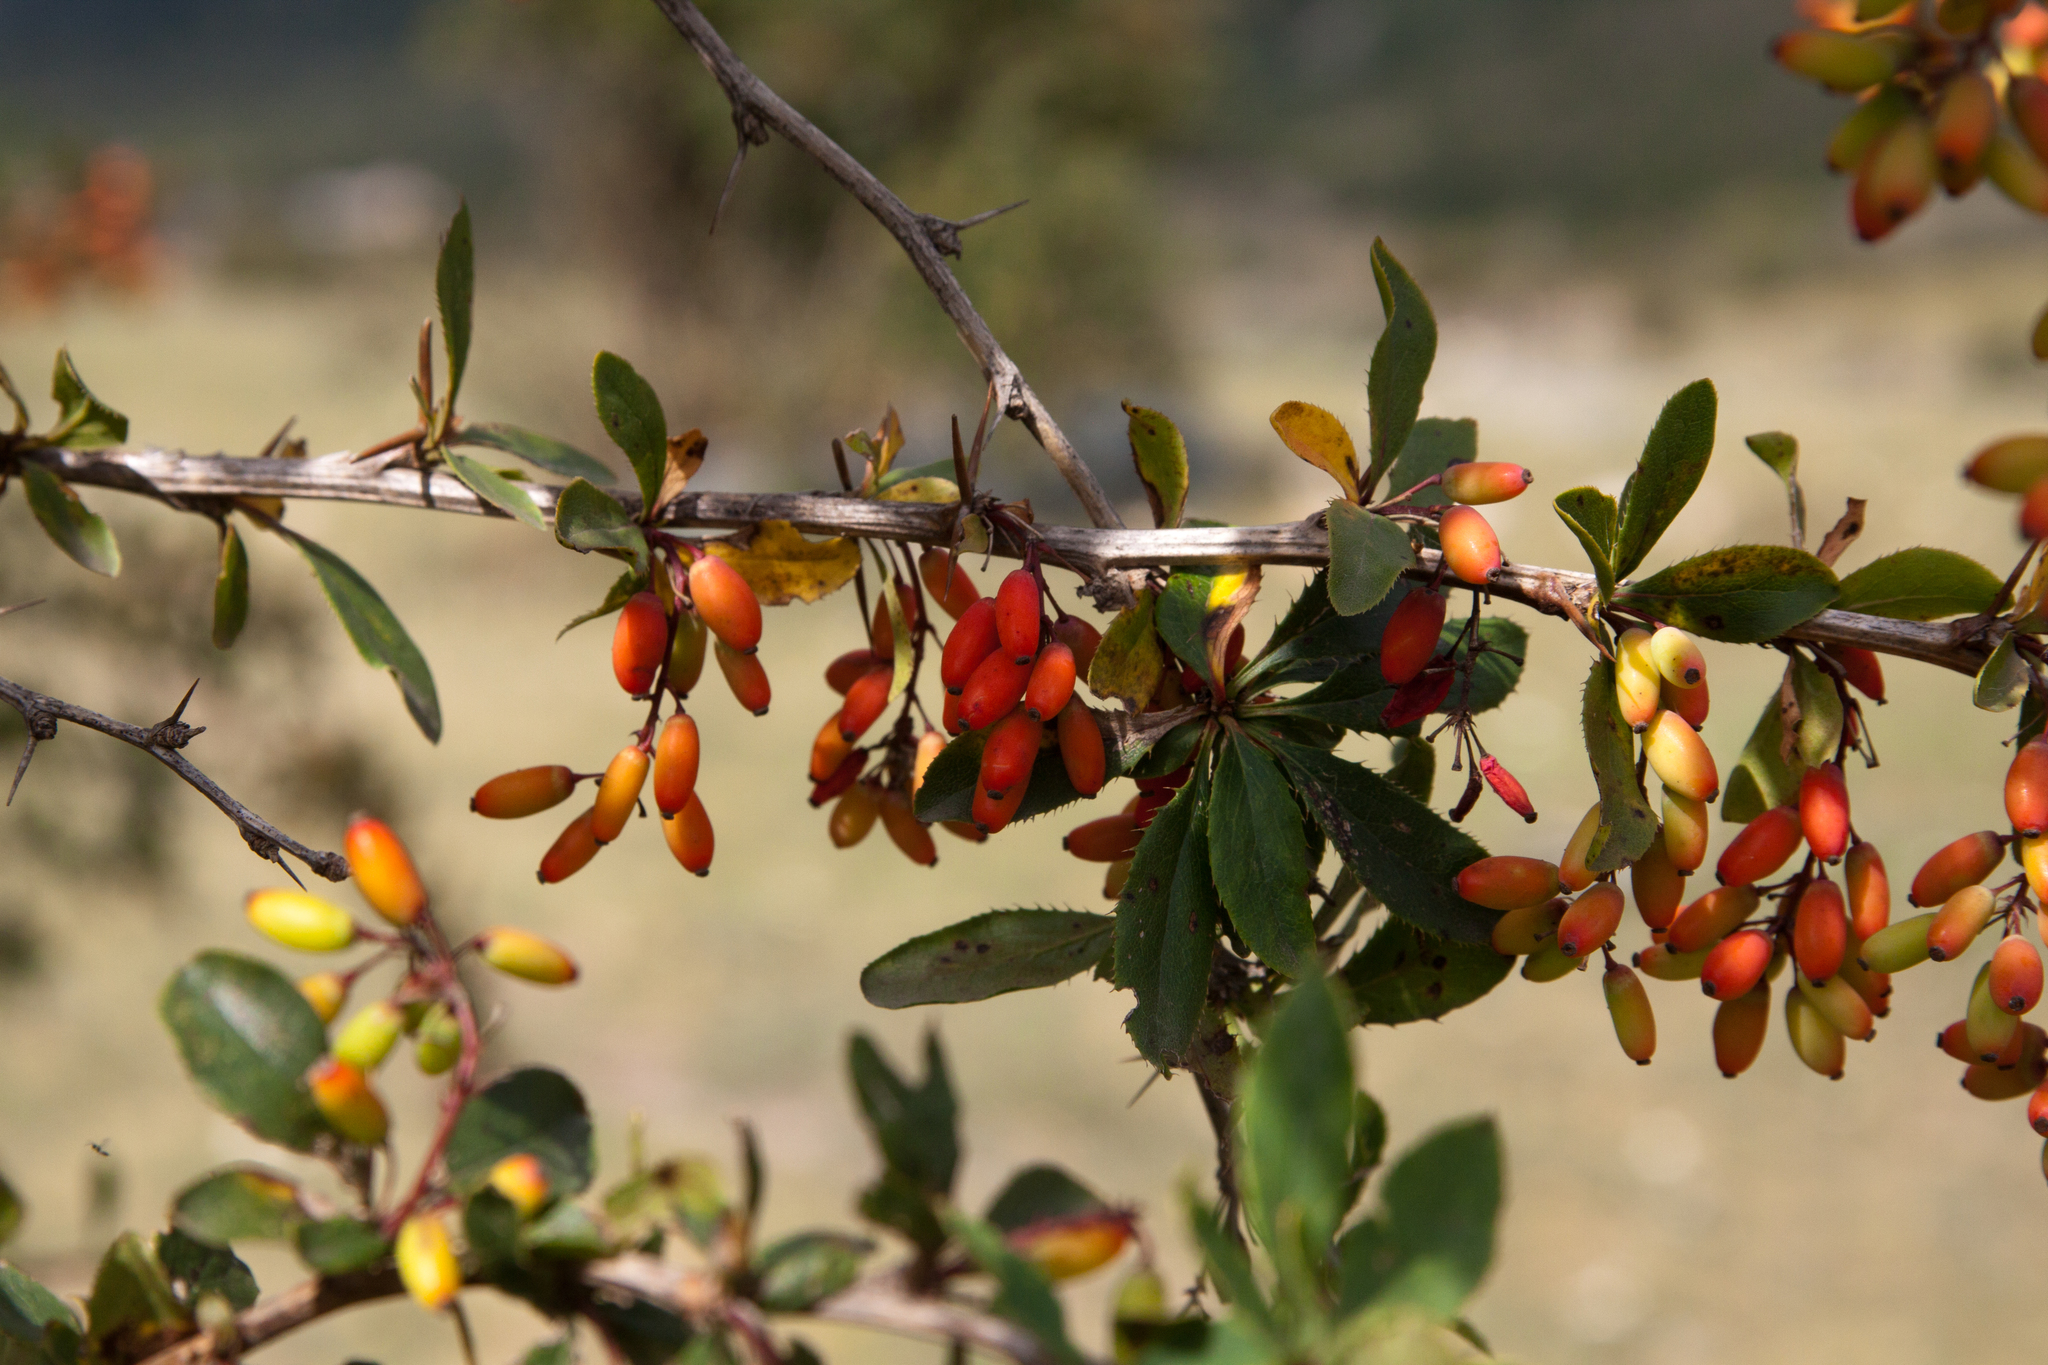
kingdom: Plantae
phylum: Tracheophyta
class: Magnoliopsida
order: Ranunculales
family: Berberidaceae
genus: Berberis
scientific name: Berberis vulgaris
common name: Barberry
